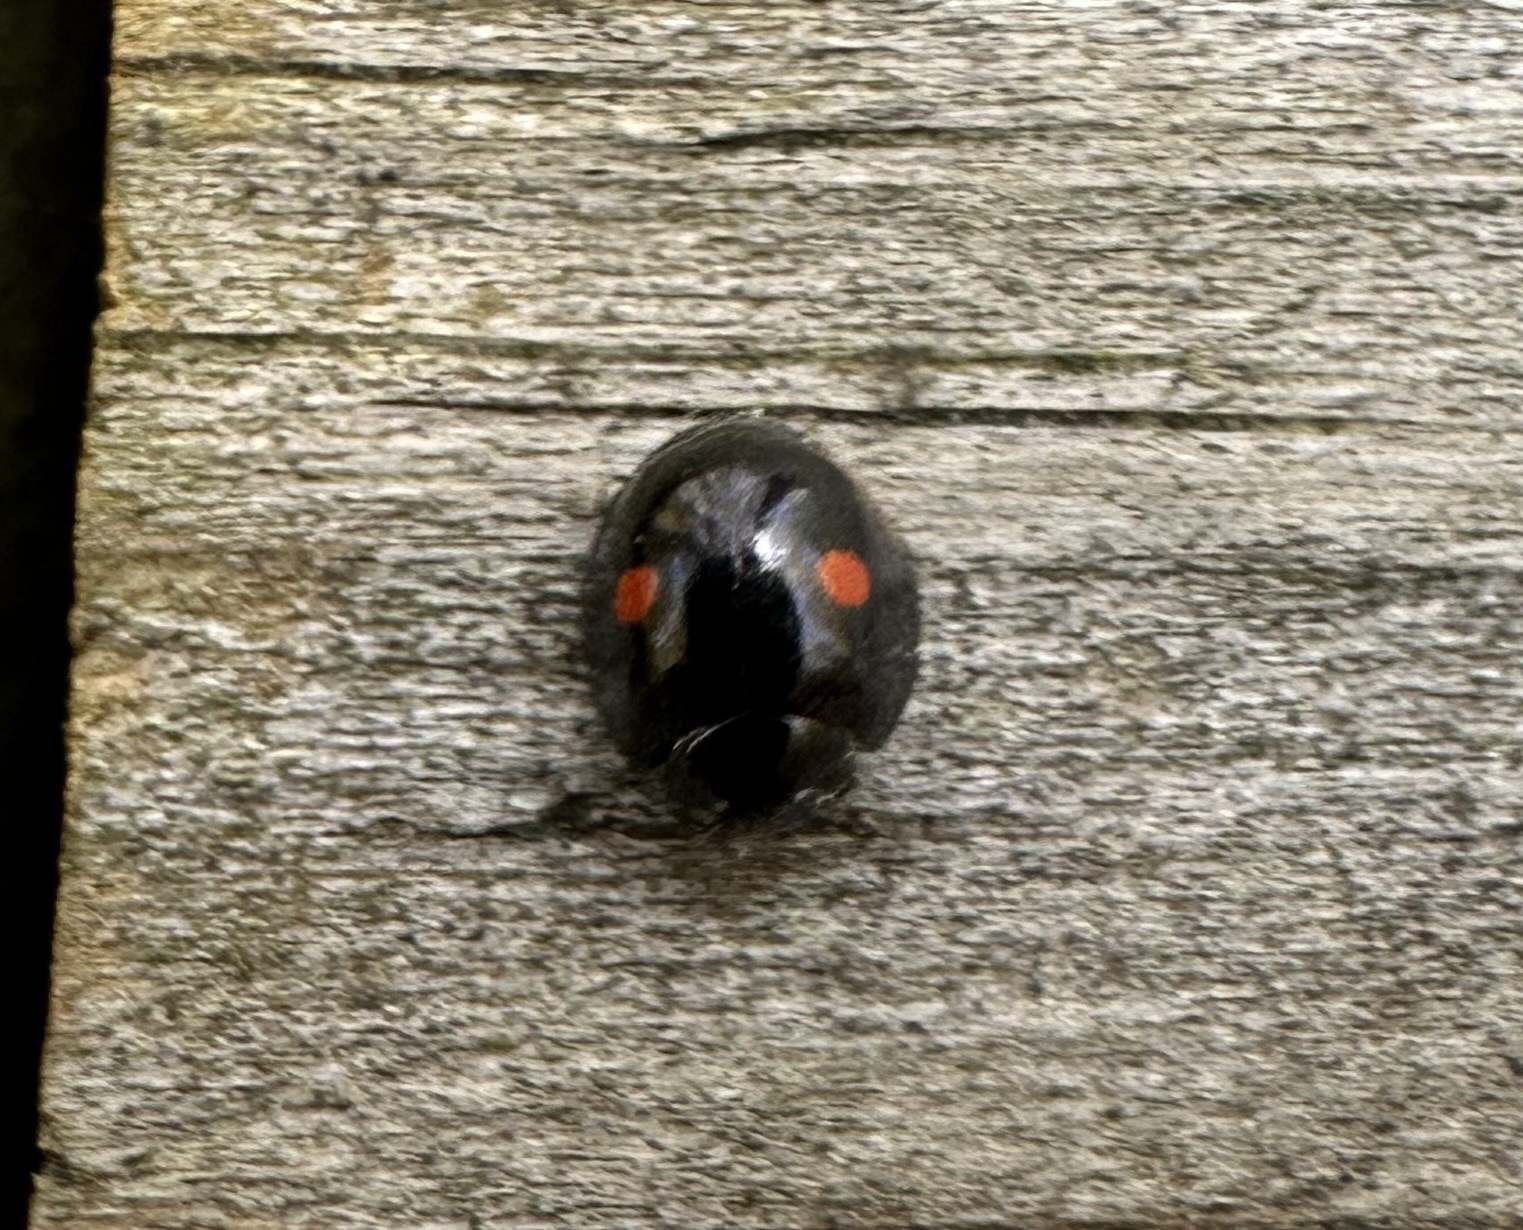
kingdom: Animalia
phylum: Arthropoda
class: Insecta
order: Coleoptera
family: Coccinellidae
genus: Chilocorus
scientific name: Chilocorus stigma
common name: Twicestabbed lady beetle
